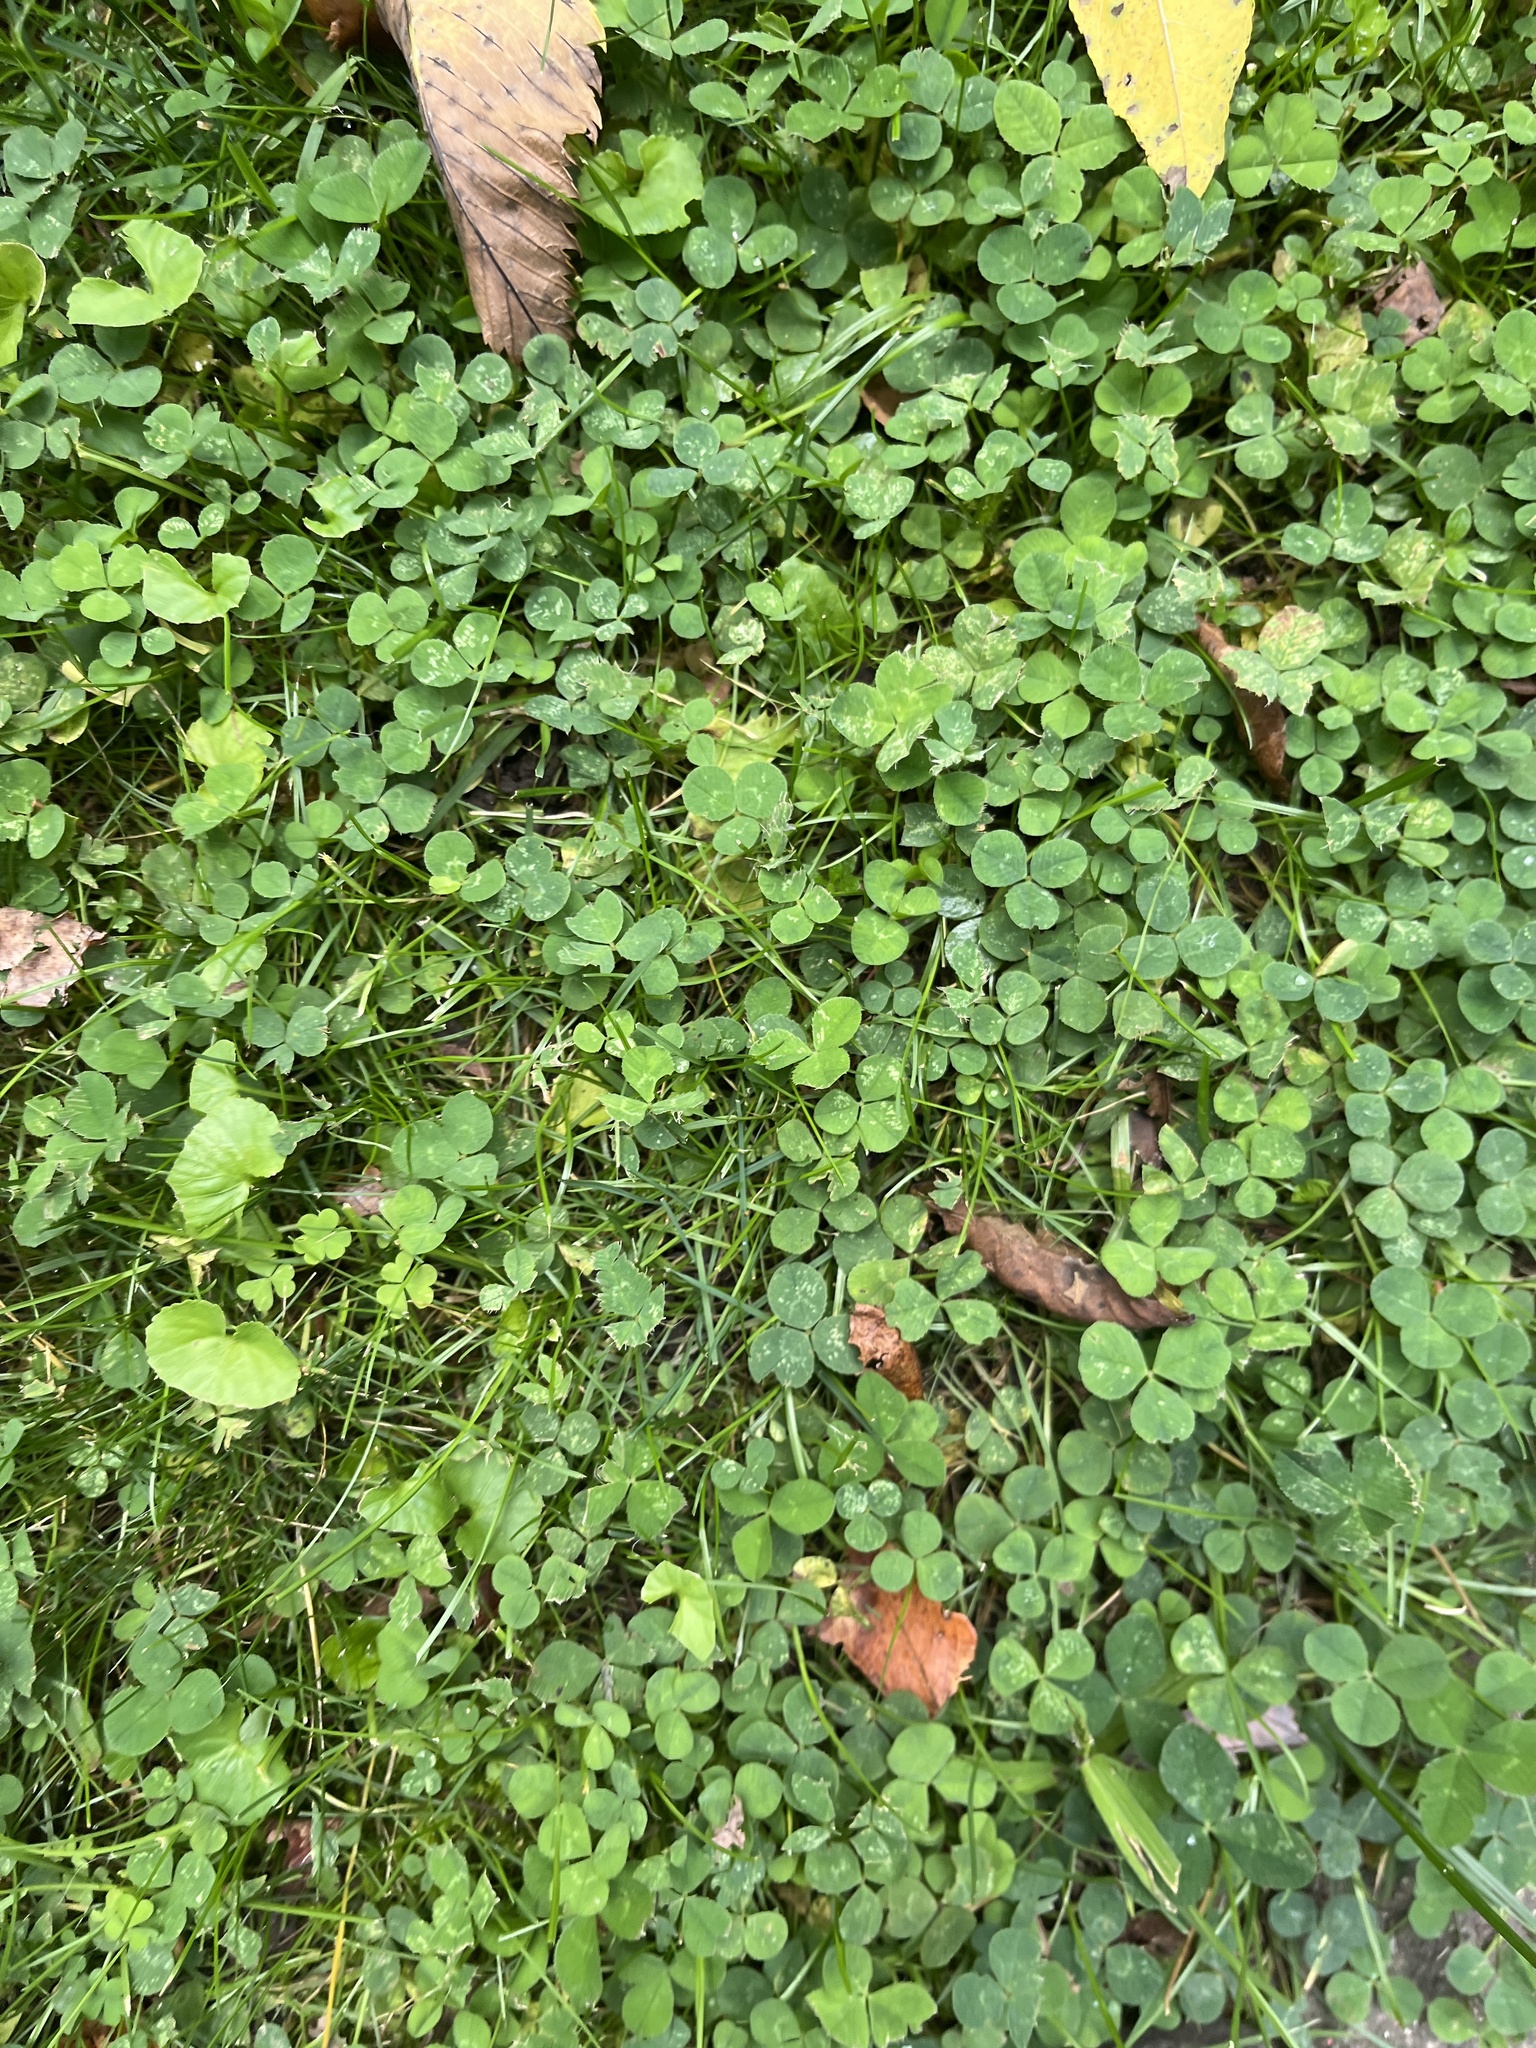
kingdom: Plantae
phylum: Tracheophyta
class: Magnoliopsida
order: Fabales
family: Fabaceae
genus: Trifolium
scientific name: Trifolium repens
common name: White clover
